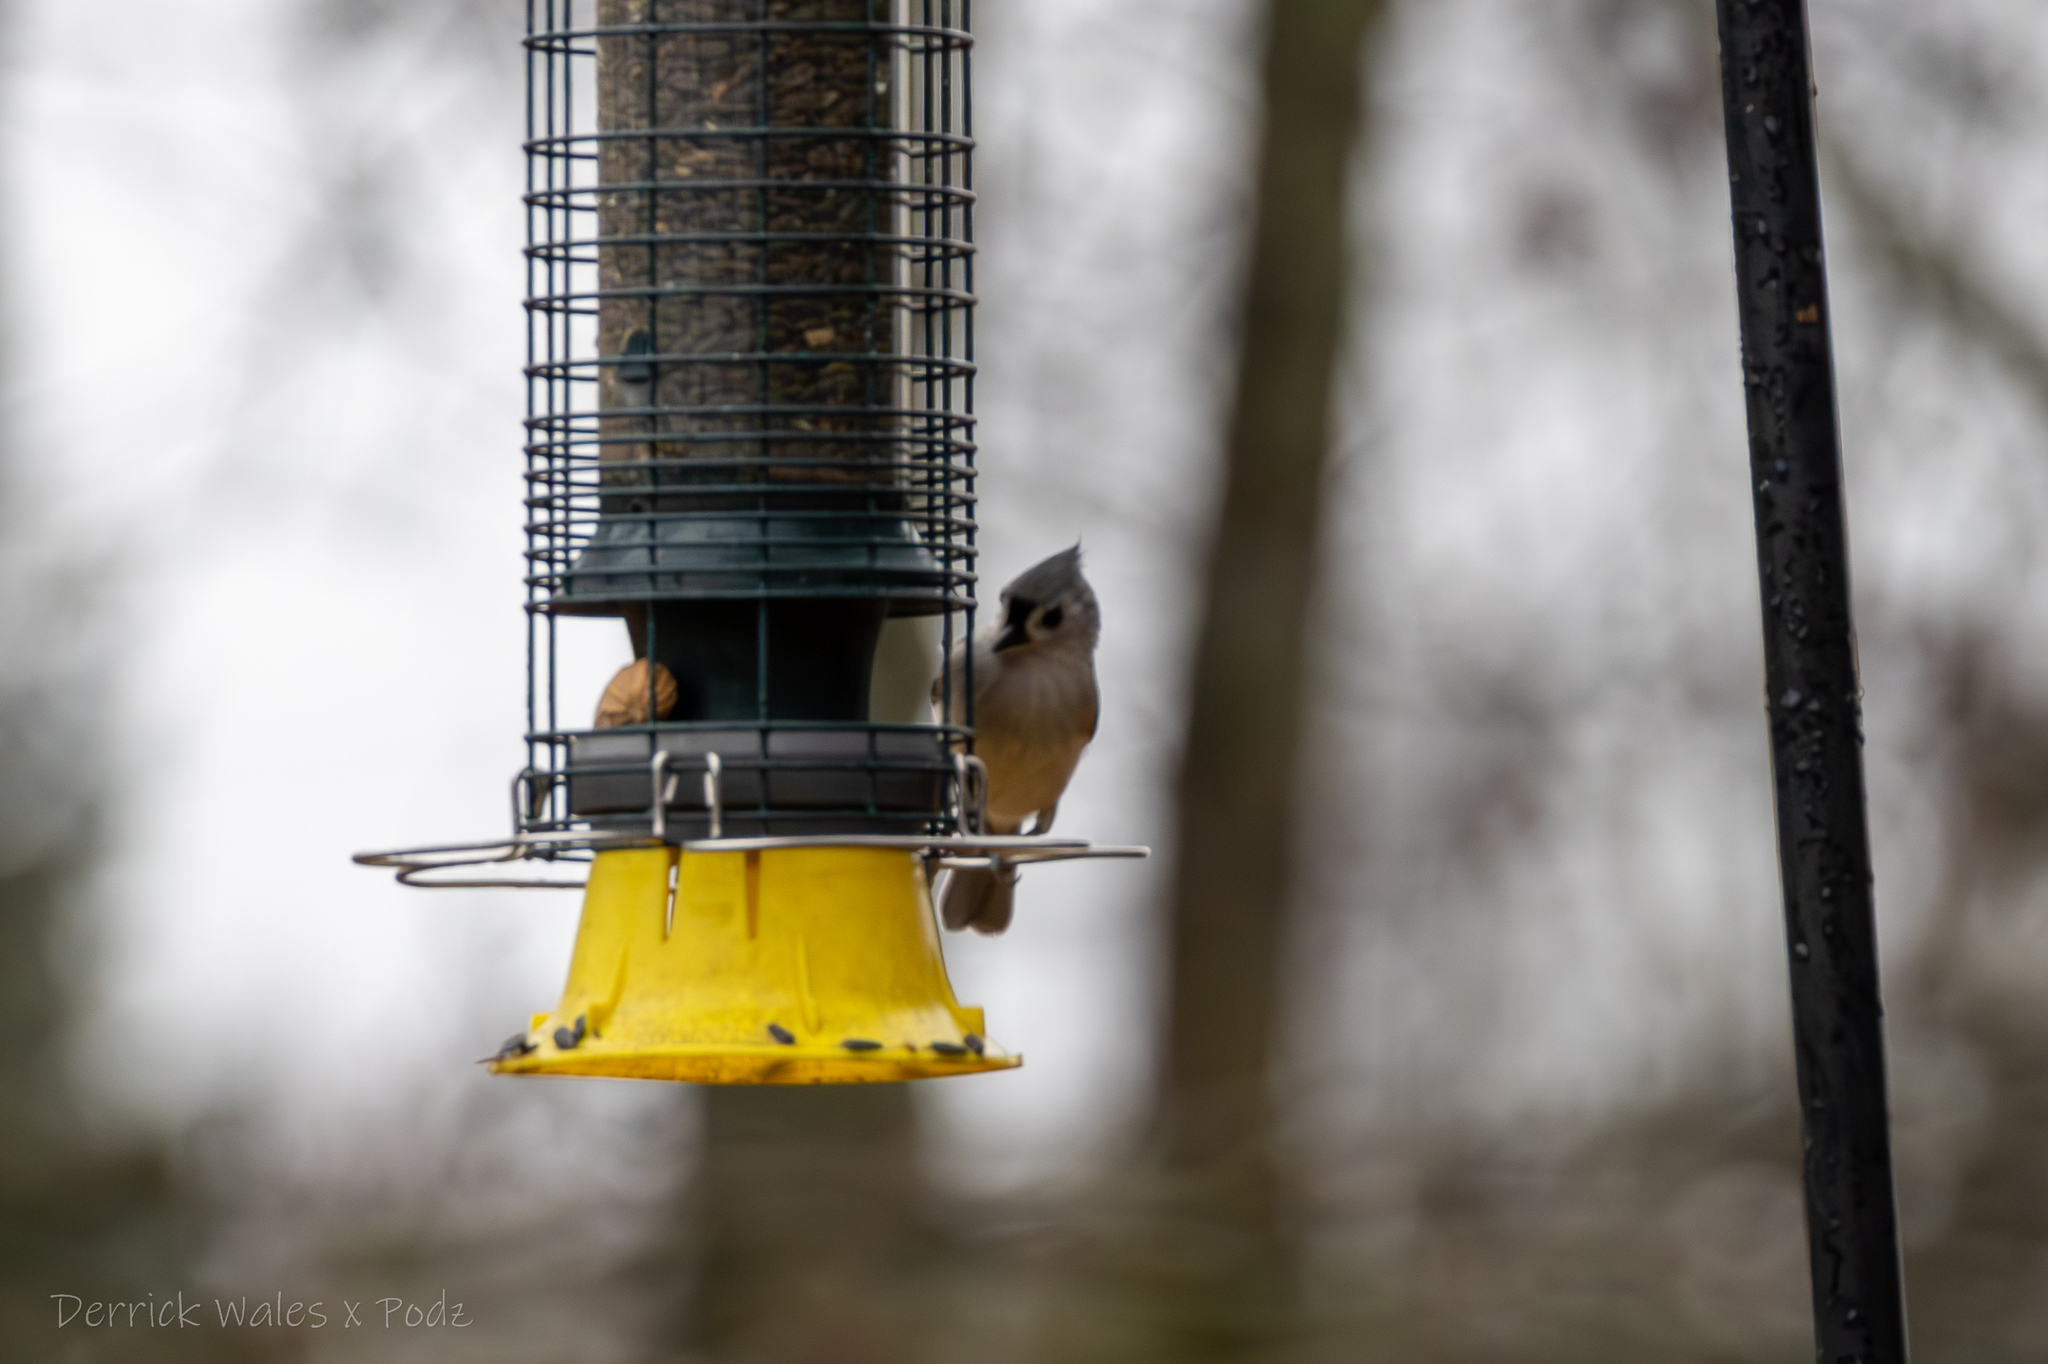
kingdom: Animalia
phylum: Chordata
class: Aves
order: Passeriformes
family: Paridae
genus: Baeolophus
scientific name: Baeolophus bicolor
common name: Tufted titmouse
